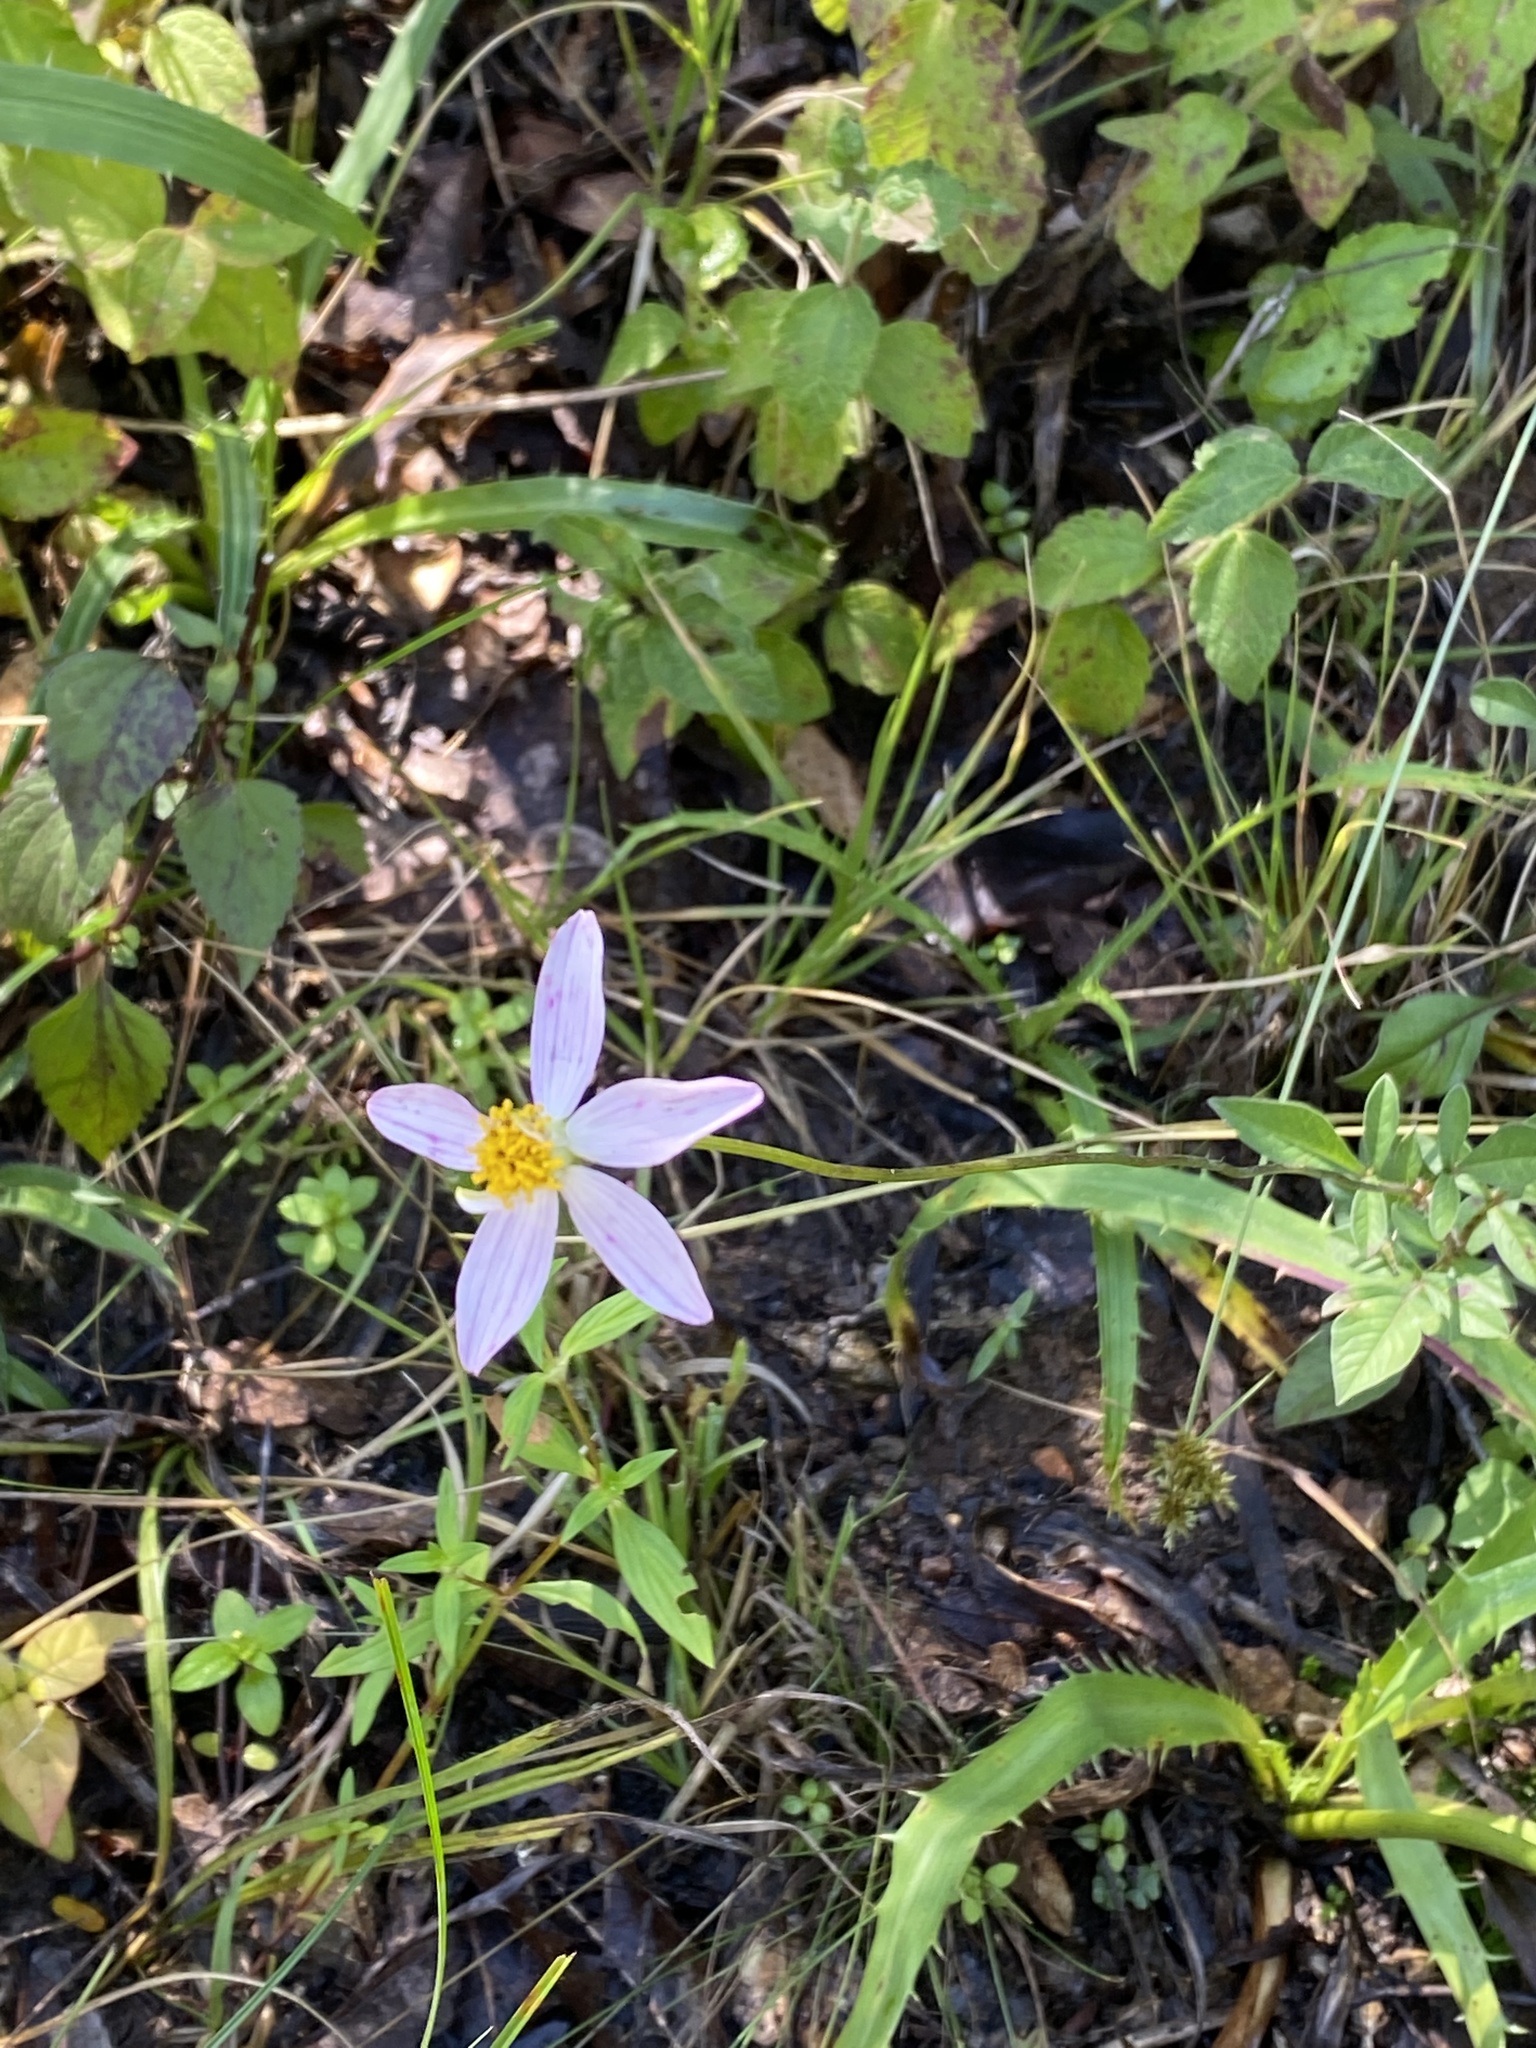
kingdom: Plantae
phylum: Tracheophyta
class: Magnoliopsida
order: Asterales
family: Asteraceae
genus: Cosmos
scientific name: Cosmos diversifolius
